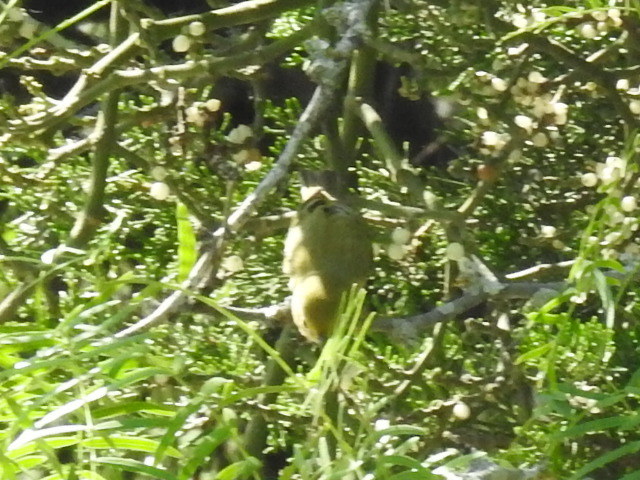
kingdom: Animalia
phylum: Chordata
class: Aves
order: Passeriformes
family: Parulidae
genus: Setophaga
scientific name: Setophaga petechia
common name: Yellow warbler
